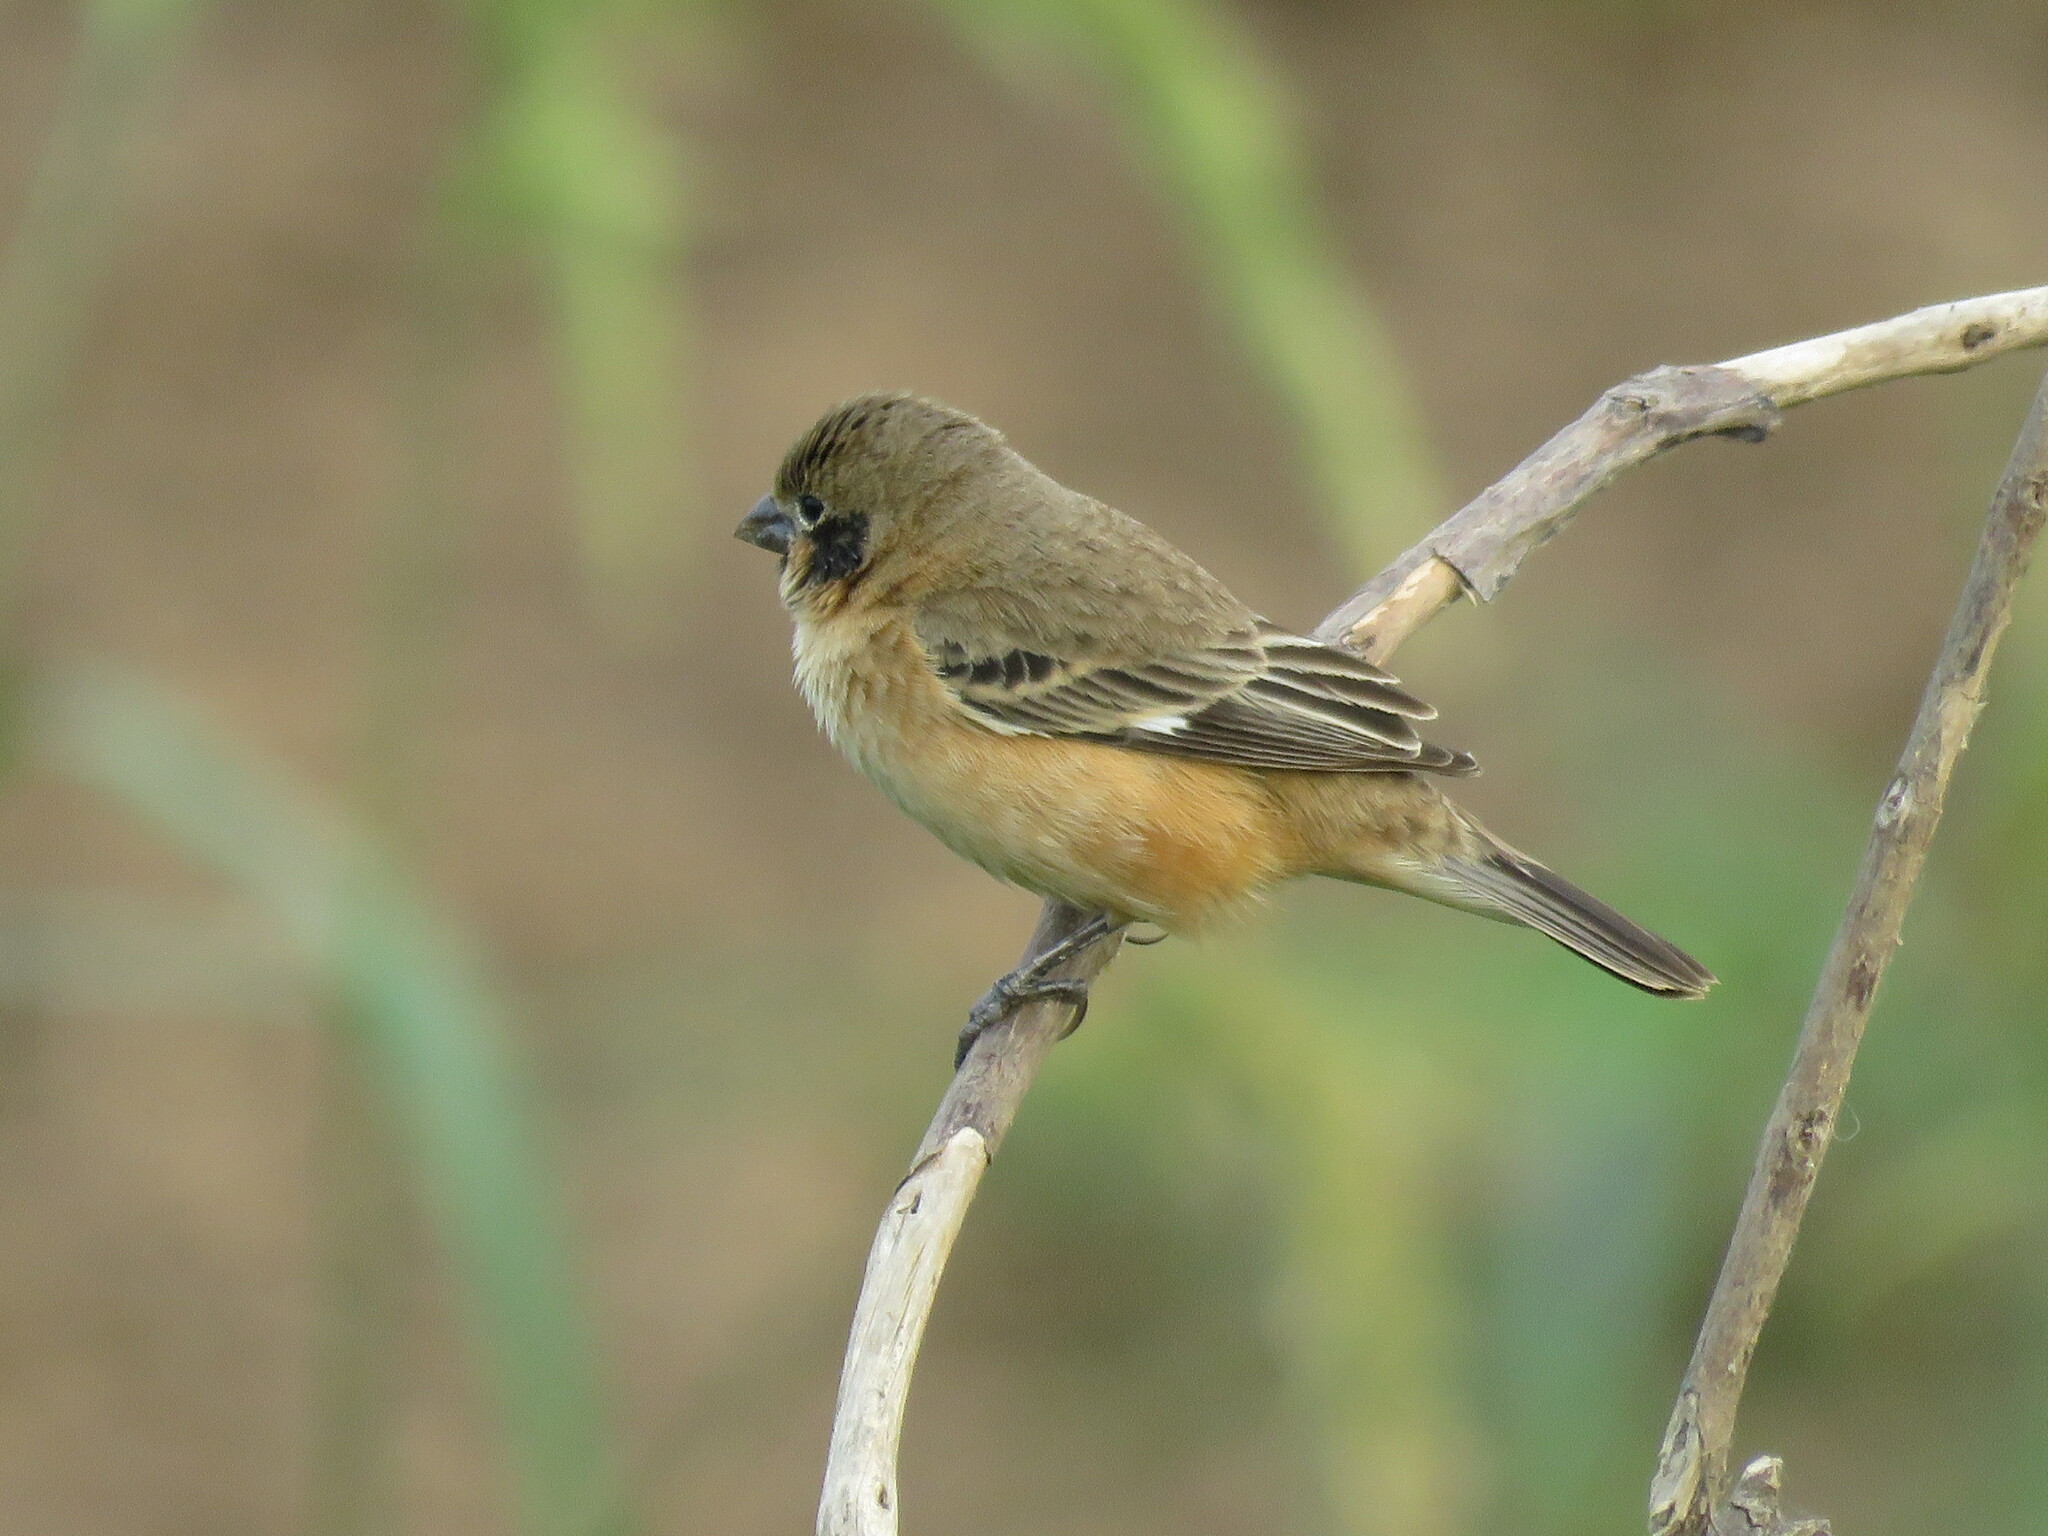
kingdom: Animalia
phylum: Chordata
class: Aves
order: Passeriformes
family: Thraupidae
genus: Sporophila
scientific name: Sporophila ruficollis
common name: Dark-throated seedeater
